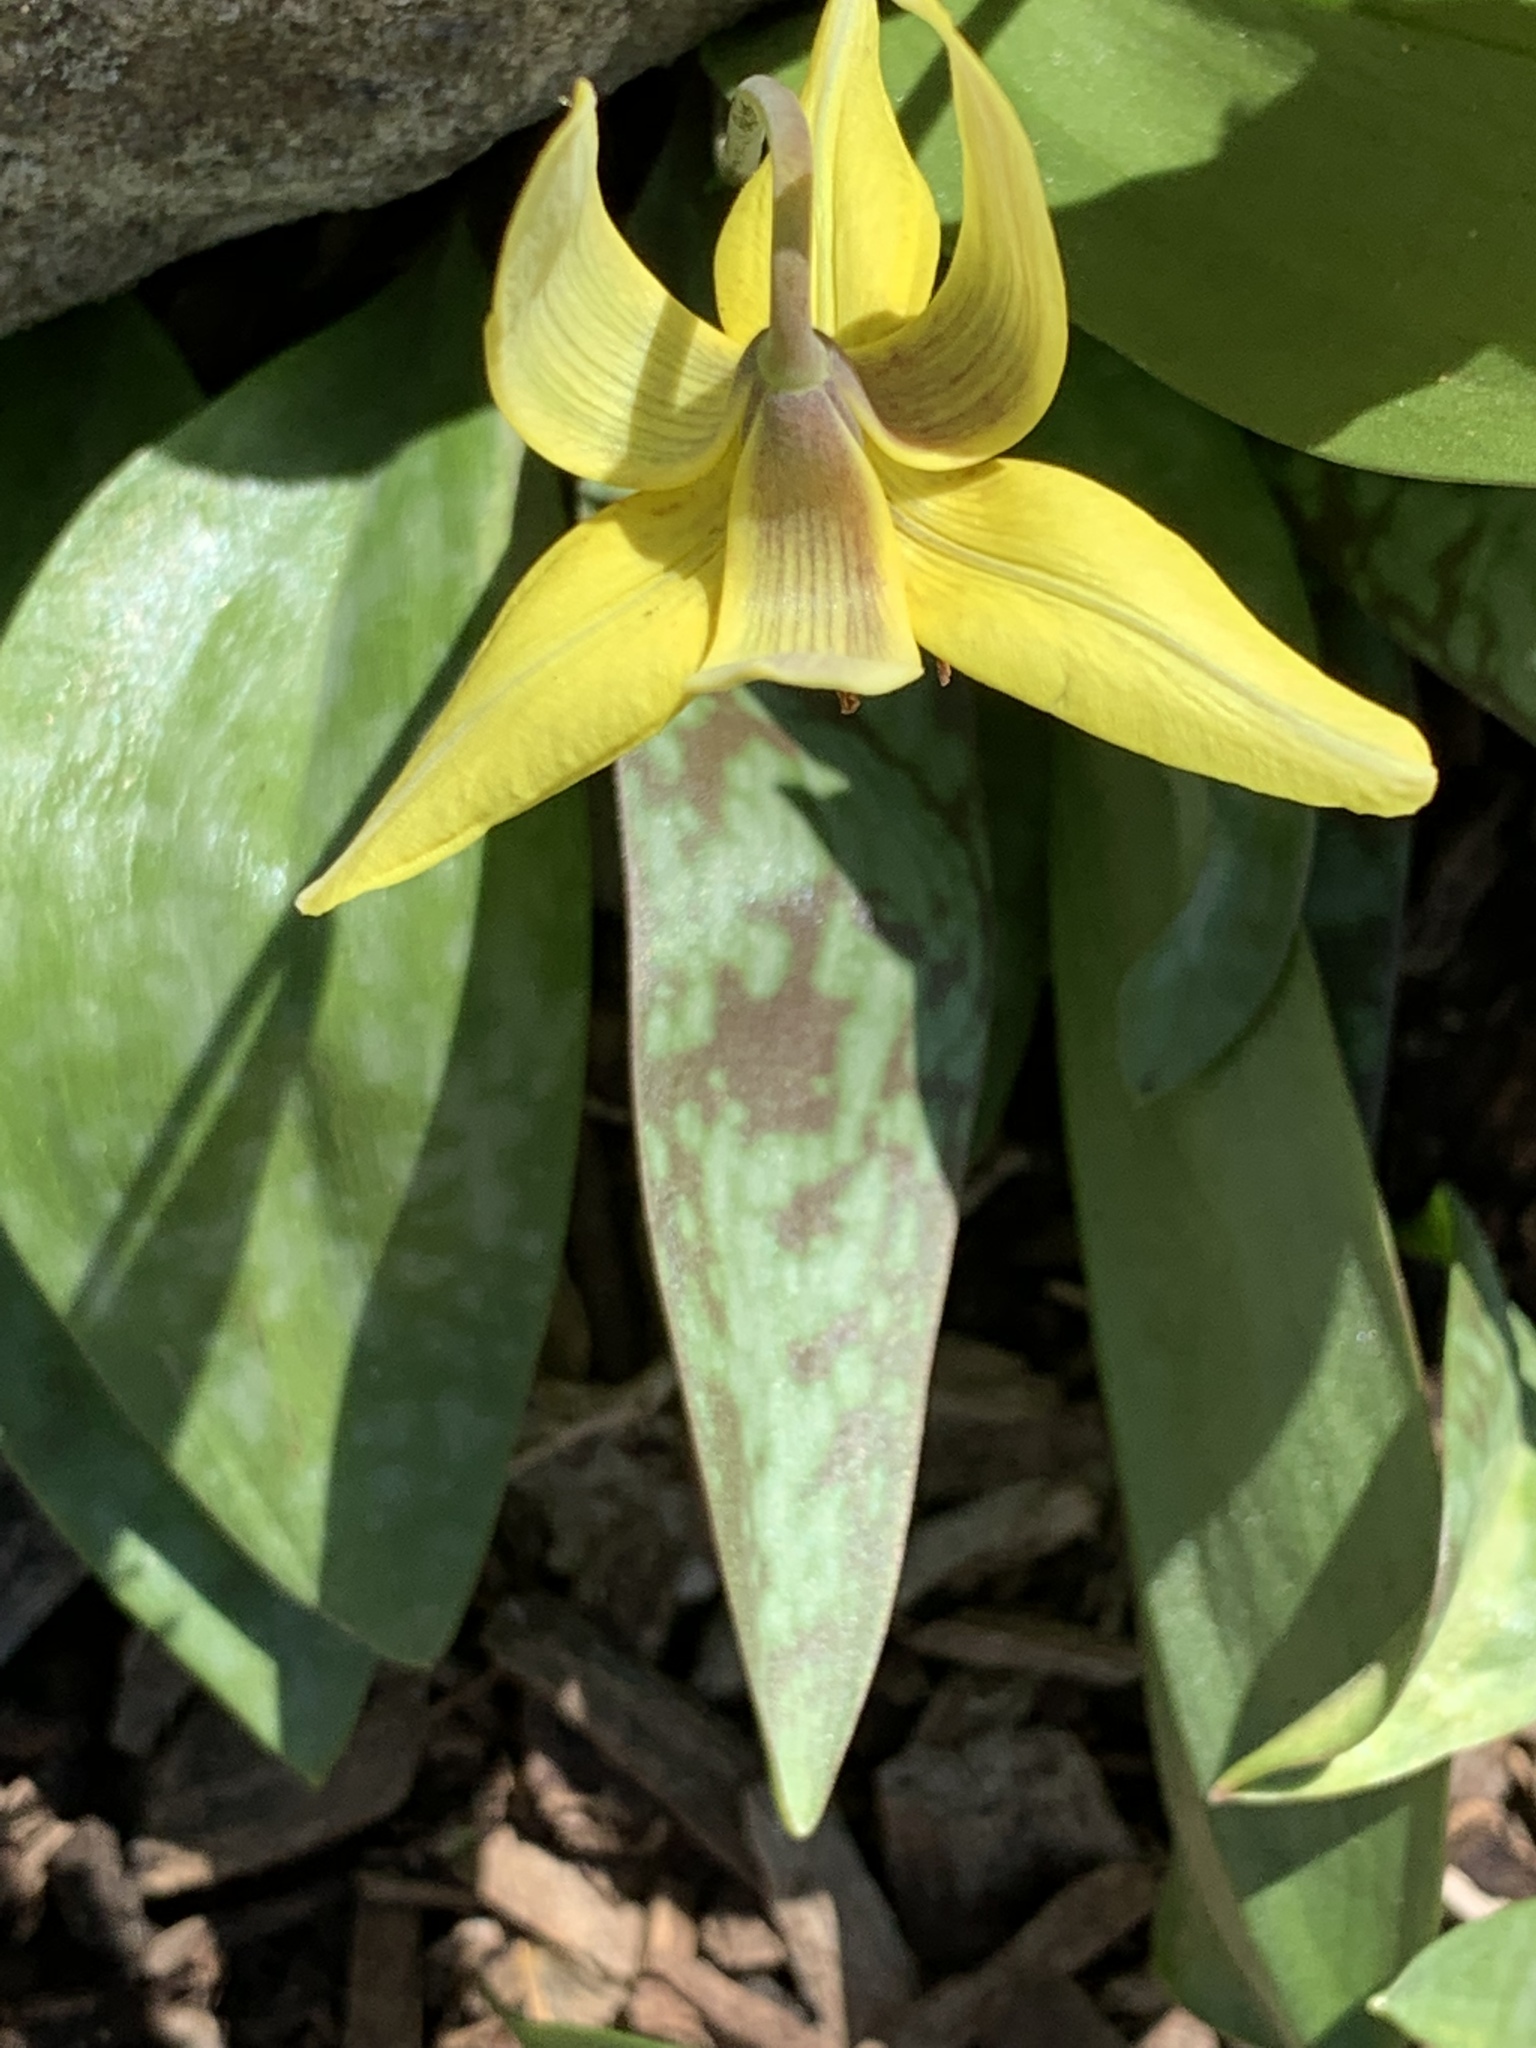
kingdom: Plantae
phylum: Tracheophyta
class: Liliopsida
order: Liliales
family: Liliaceae
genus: Erythronium
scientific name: Erythronium americanum
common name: Yellow adder's-tongue
